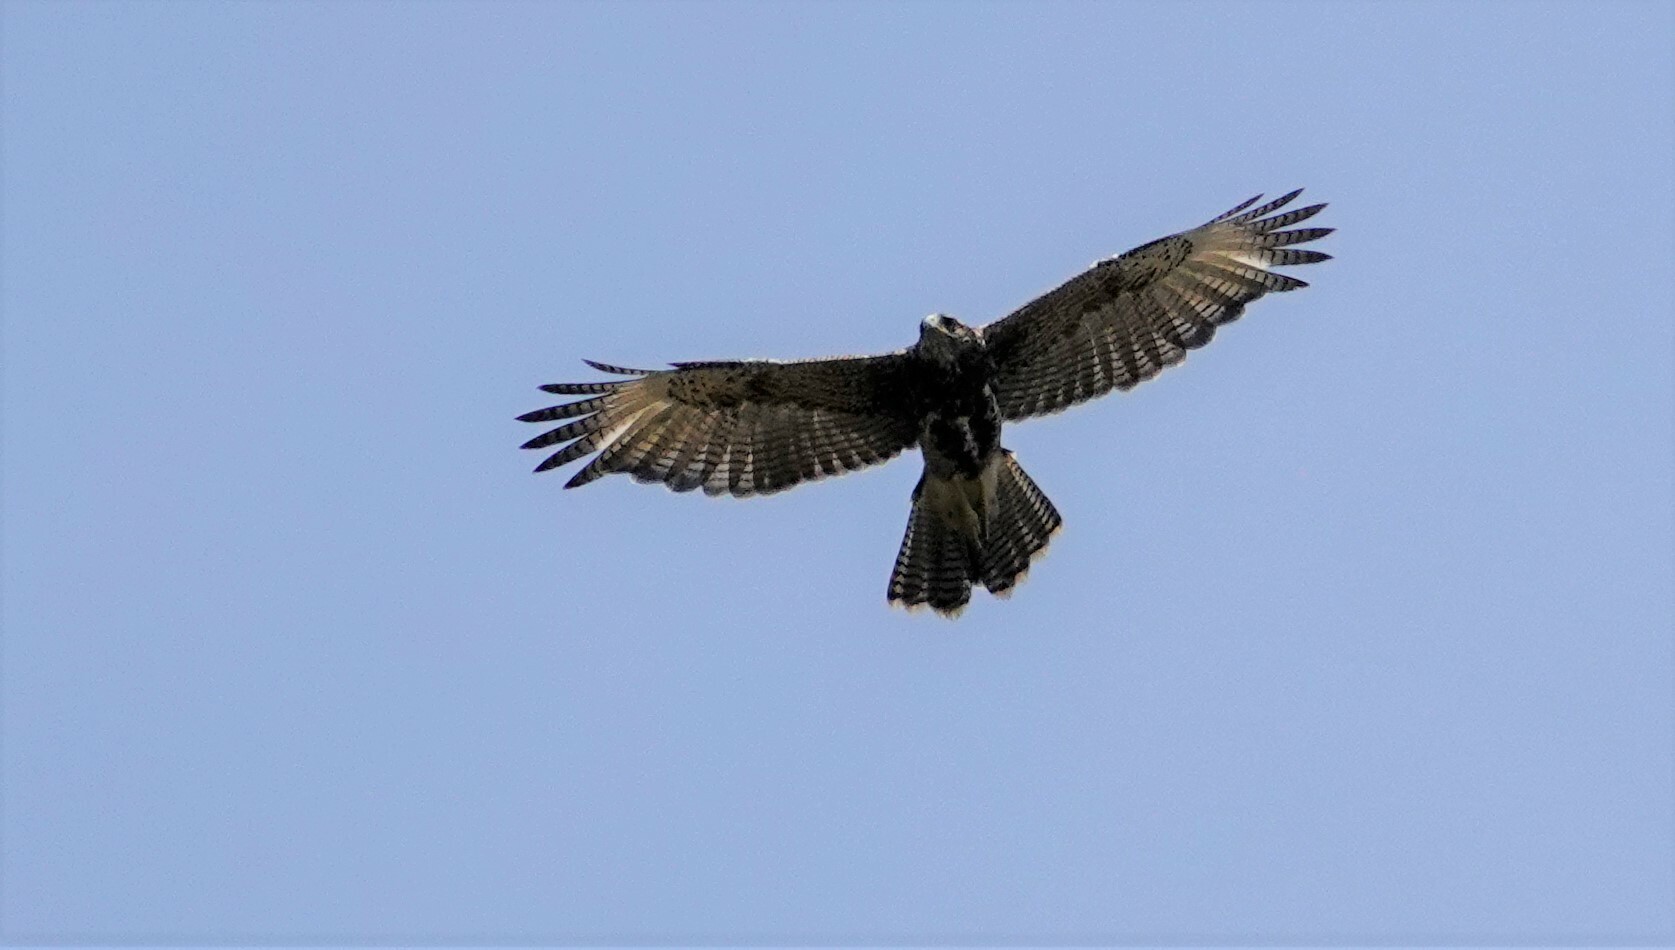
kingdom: Animalia
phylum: Chordata
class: Aves
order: Accipitriformes
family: Accipitridae
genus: Parabuteo
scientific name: Parabuteo unicinctus
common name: Harris's hawk
